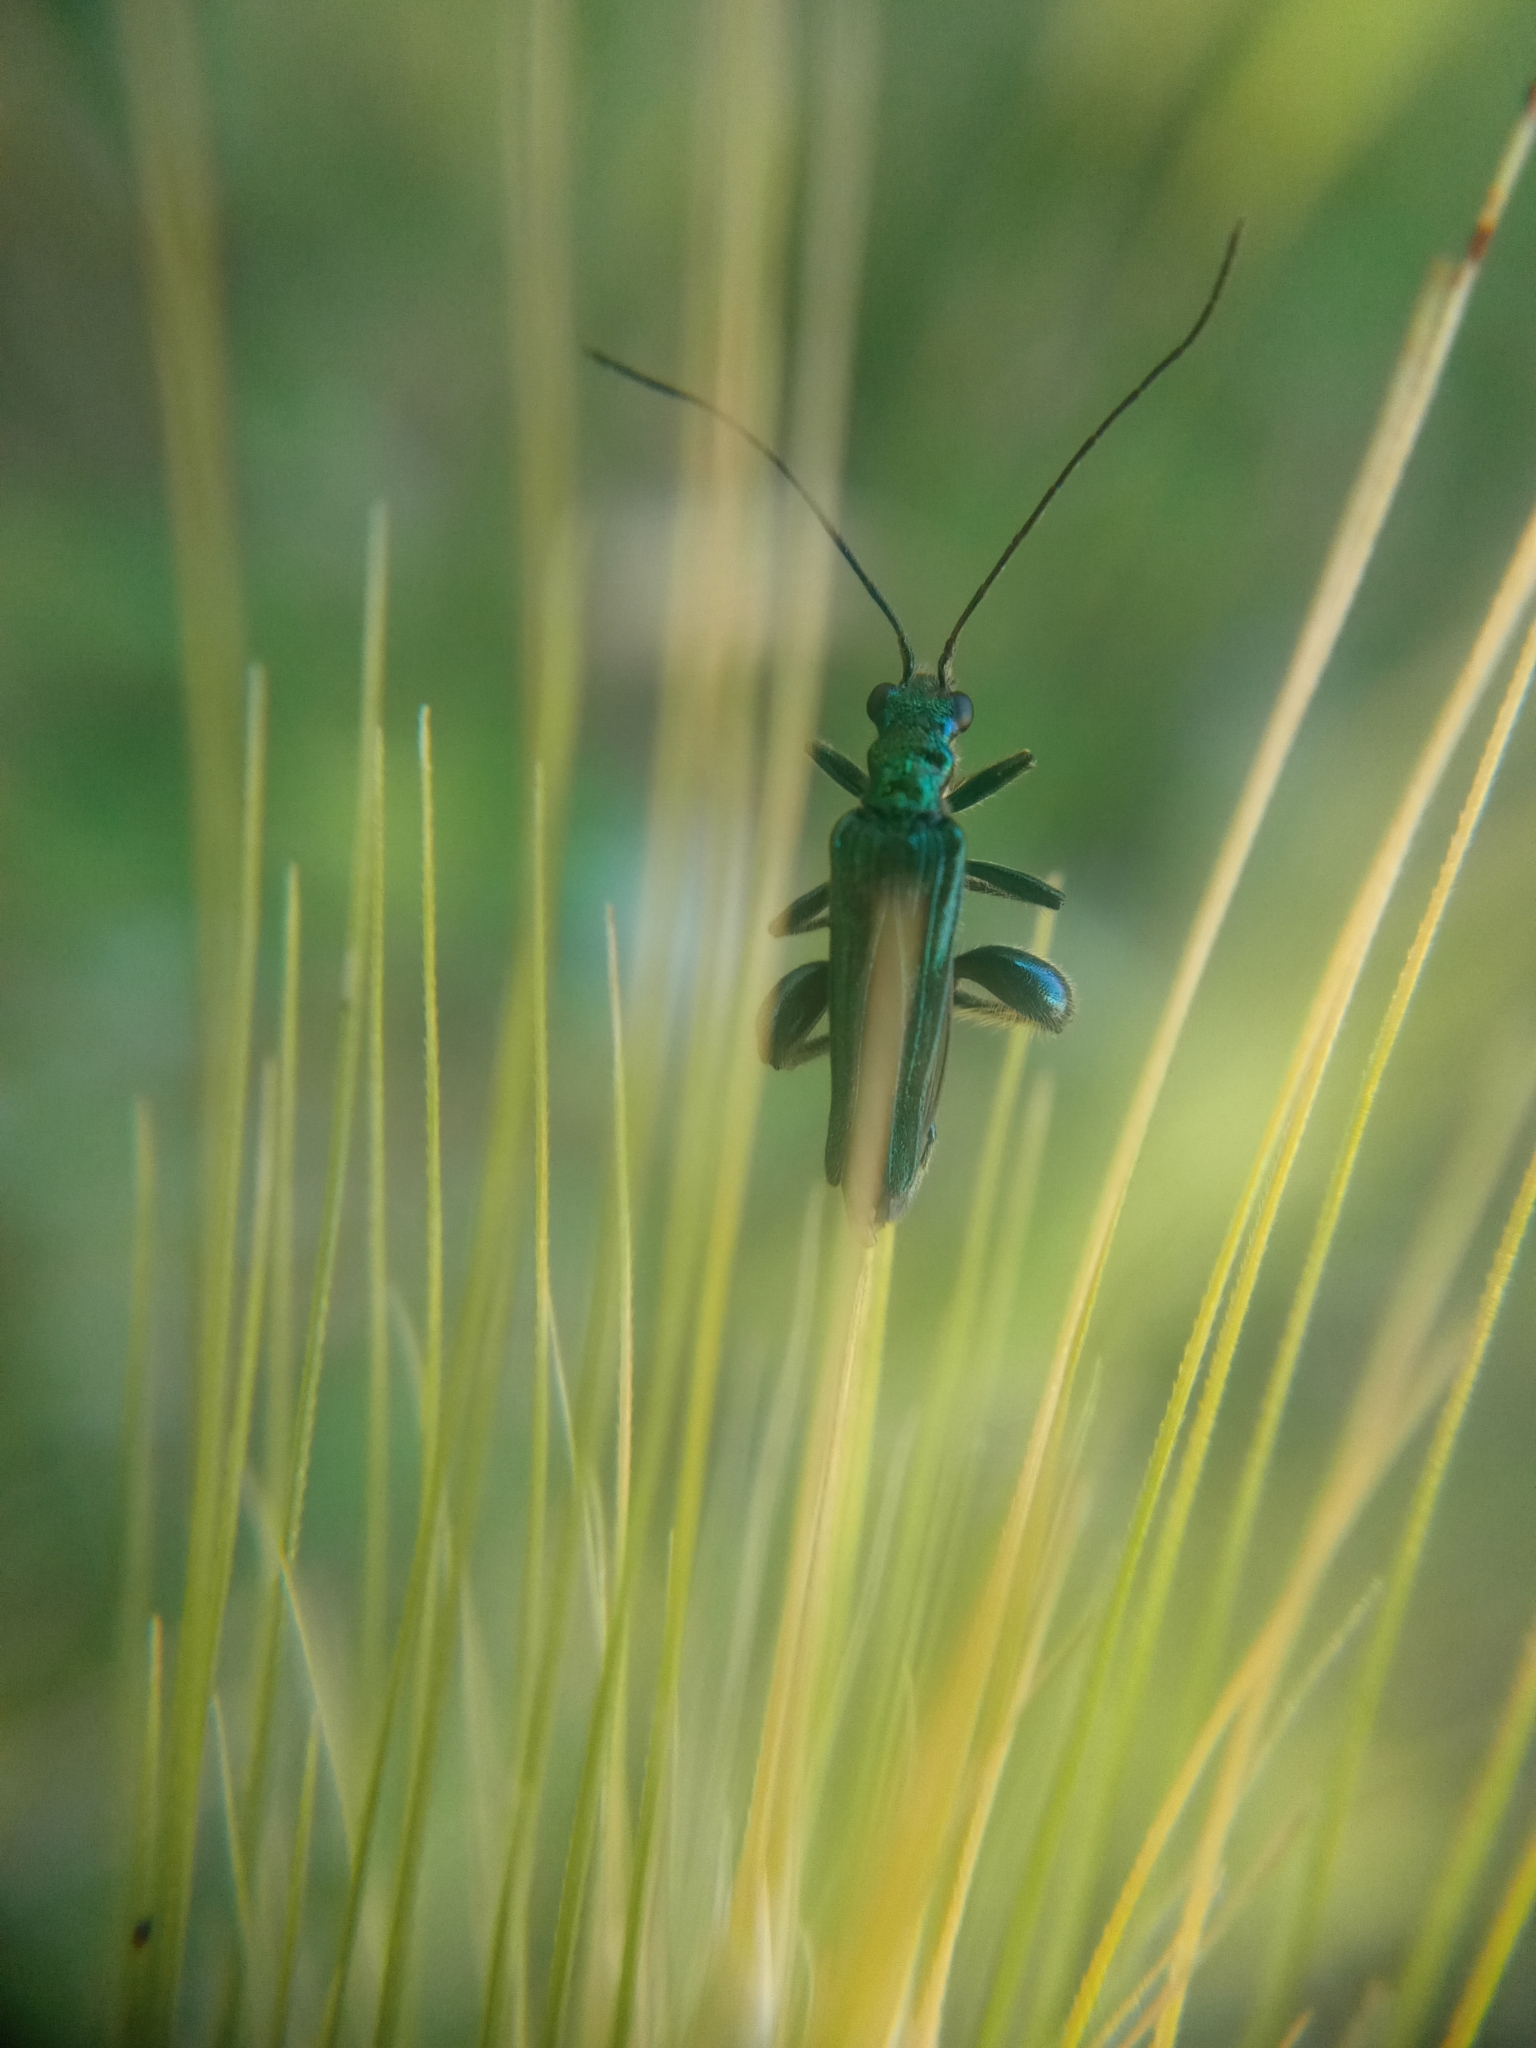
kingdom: Animalia
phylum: Arthropoda
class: Insecta
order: Coleoptera
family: Oedemeridae
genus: Oedemera
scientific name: Oedemera nobilis
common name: Swollen-thighed beetle
